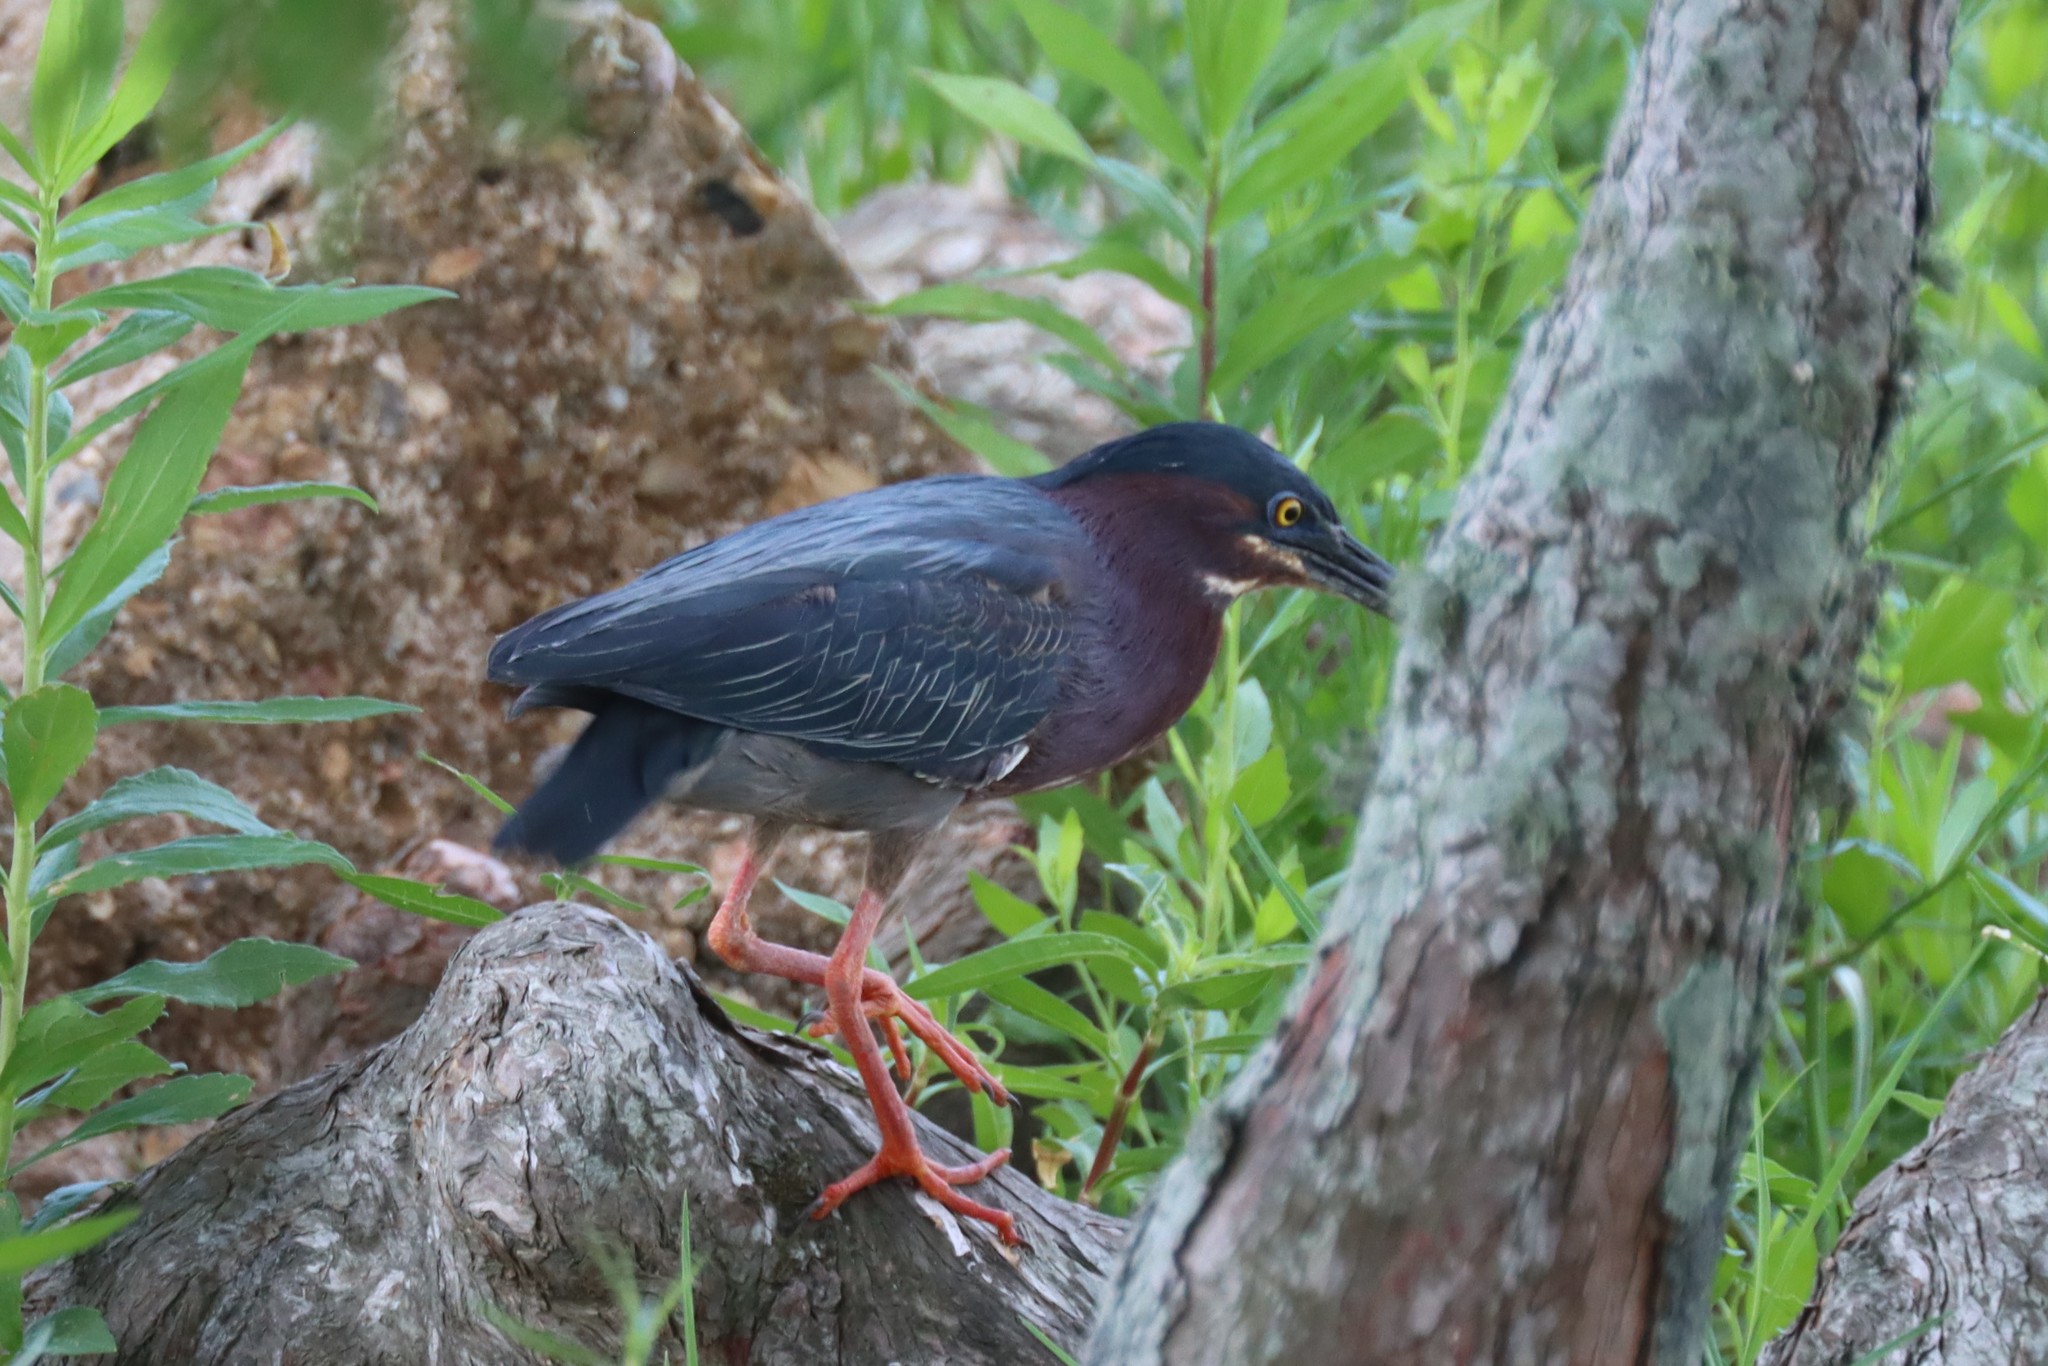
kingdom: Animalia
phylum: Chordata
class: Aves
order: Pelecaniformes
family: Ardeidae
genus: Butorides
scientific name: Butorides virescens
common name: Green heron
